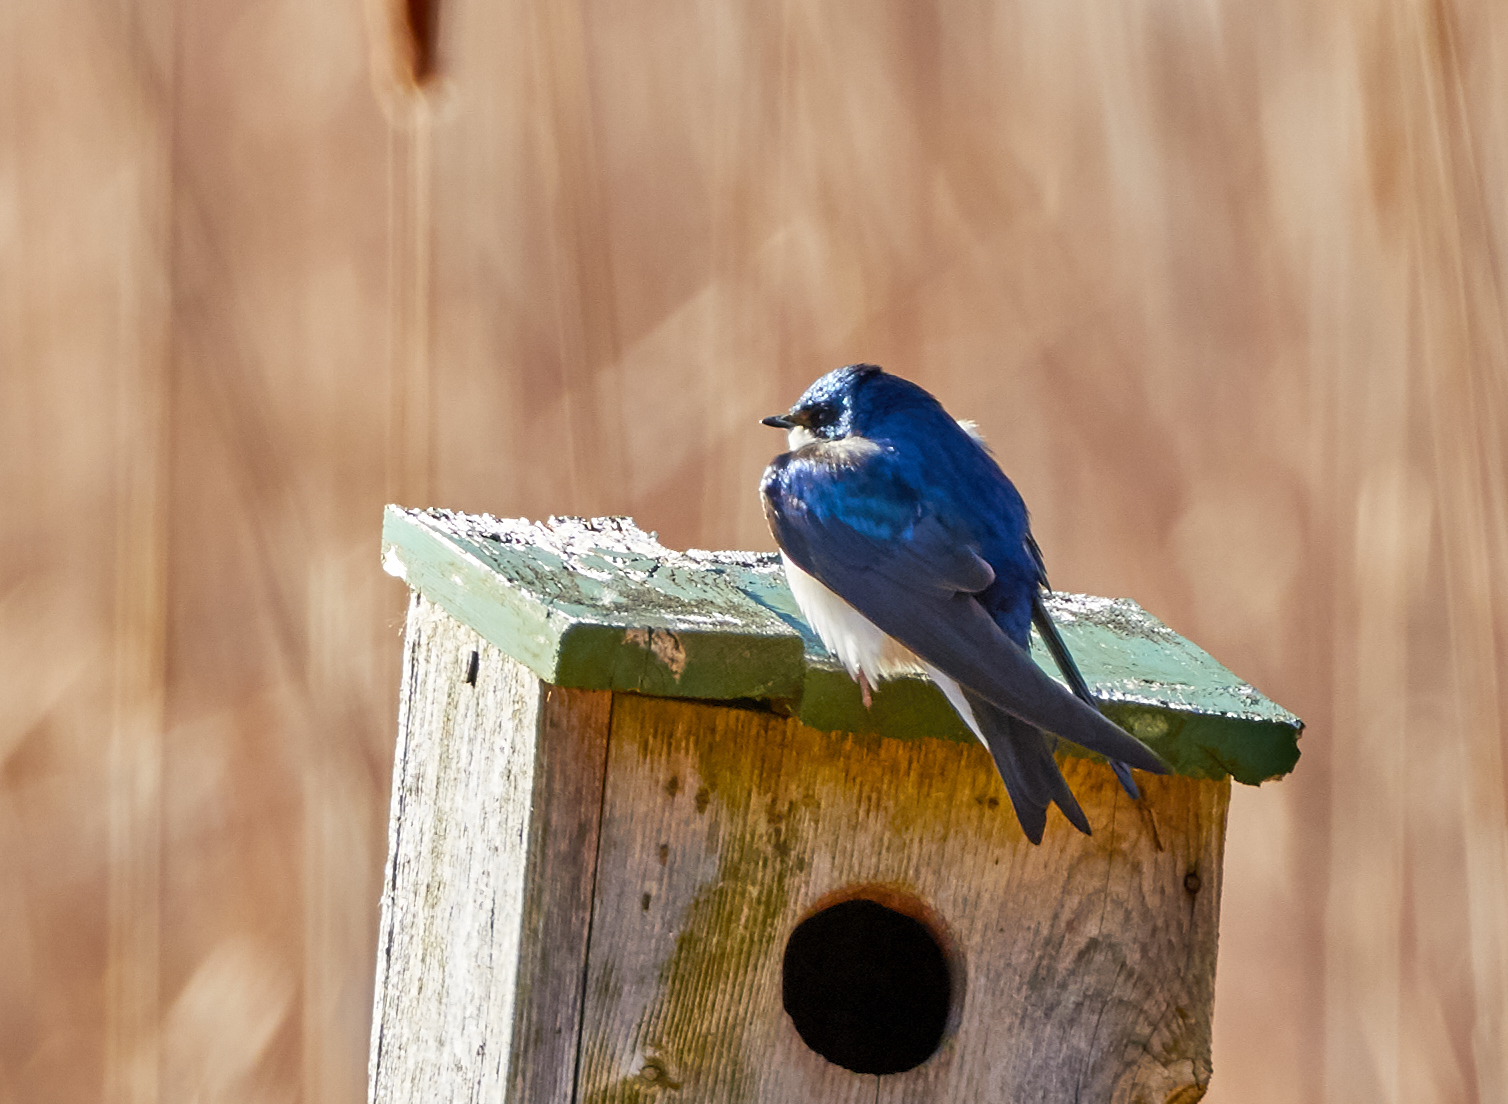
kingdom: Animalia
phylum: Chordata
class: Aves
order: Passeriformes
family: Hirundinidae
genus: Tachycineta
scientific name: Tachycineta bicolor
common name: Tree swallow
